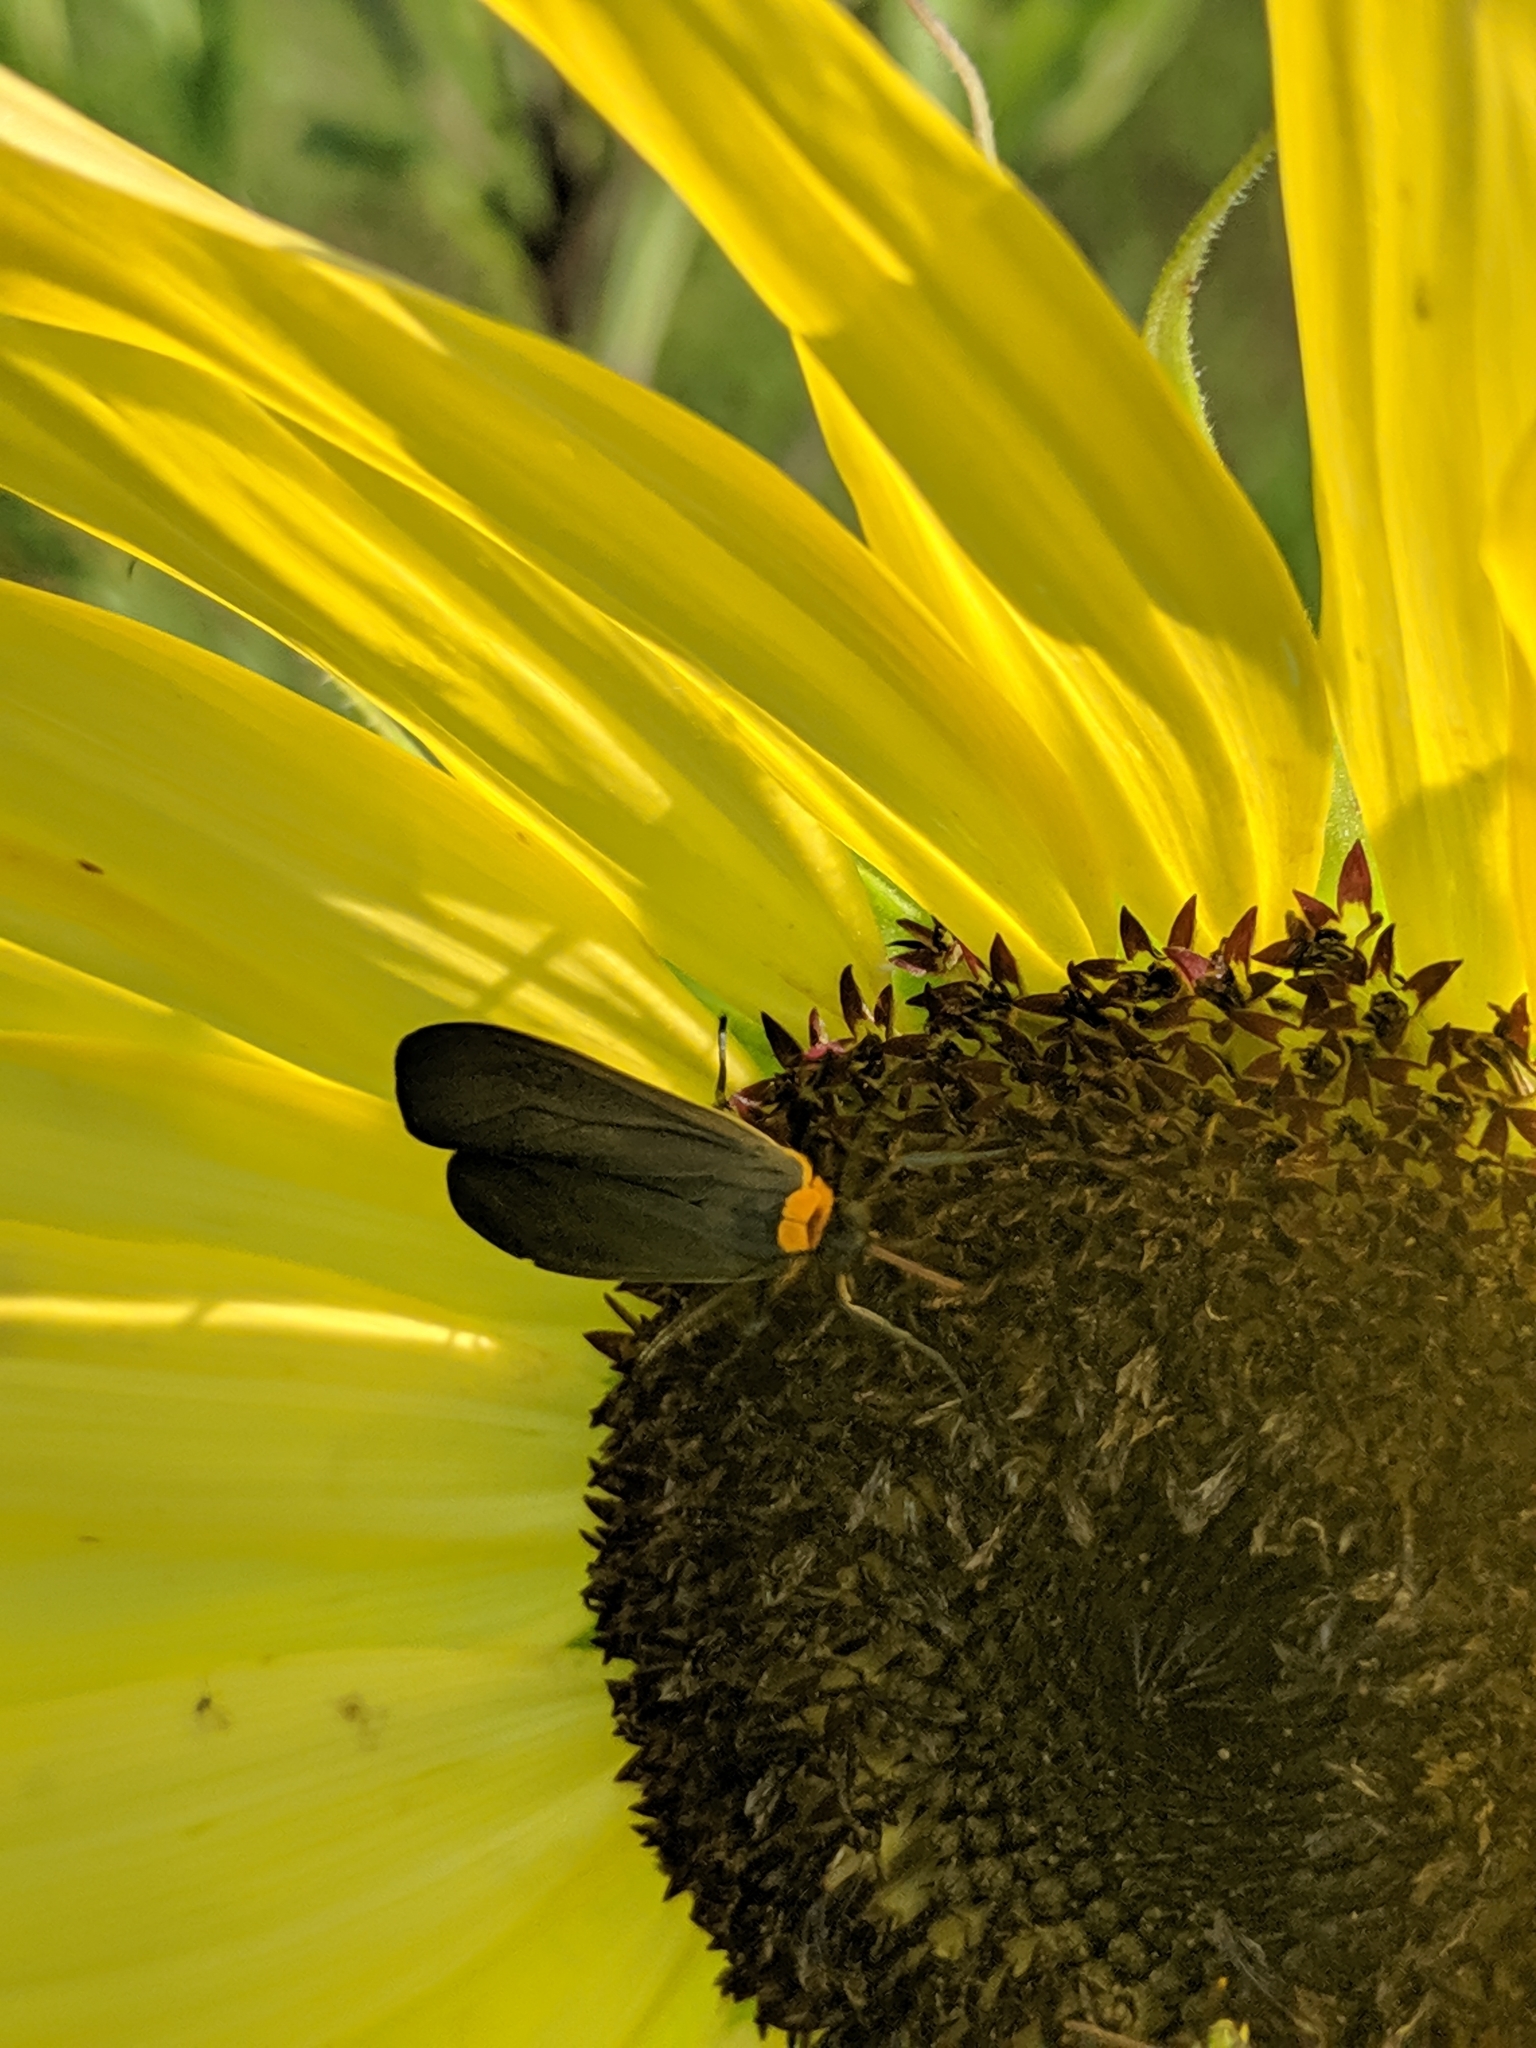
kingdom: Animalia
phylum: Arthropoda
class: Insecta
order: Lepidoptera
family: Erebidae
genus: Cisseps
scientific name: Cisseps fulvicollis
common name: Yellow-collared scape moth
